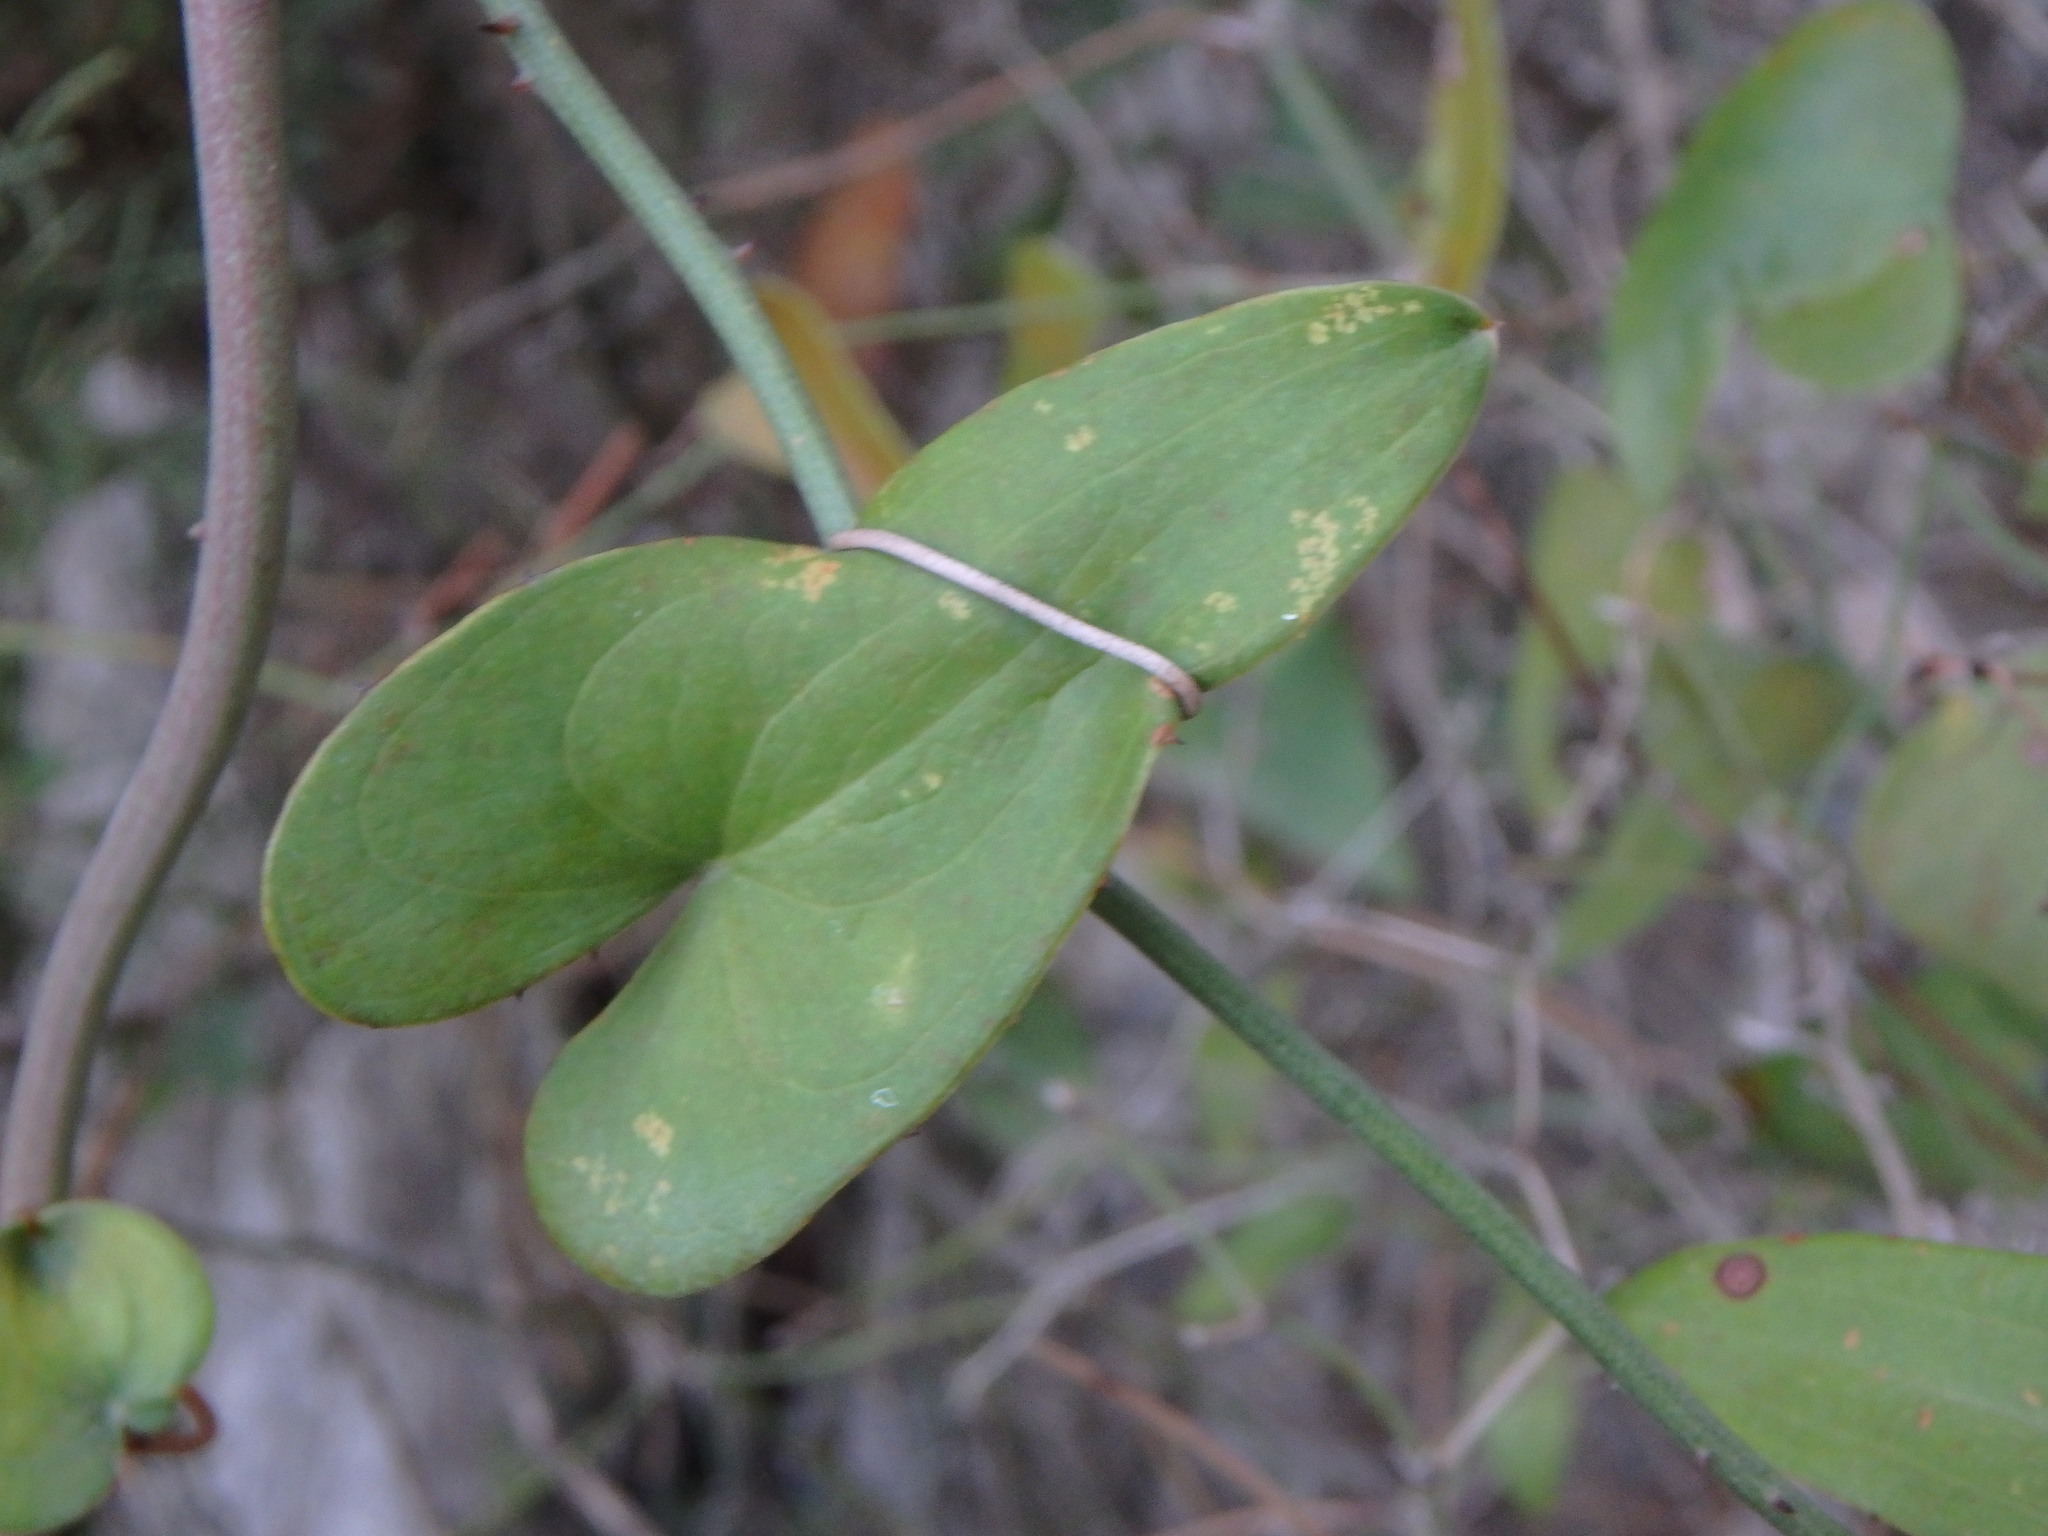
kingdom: Plantae
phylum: Tracheophyta
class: Liliopsida
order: Liliales
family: Smilacaceae
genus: Smilax
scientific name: Smilax aspera
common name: Common smilax
